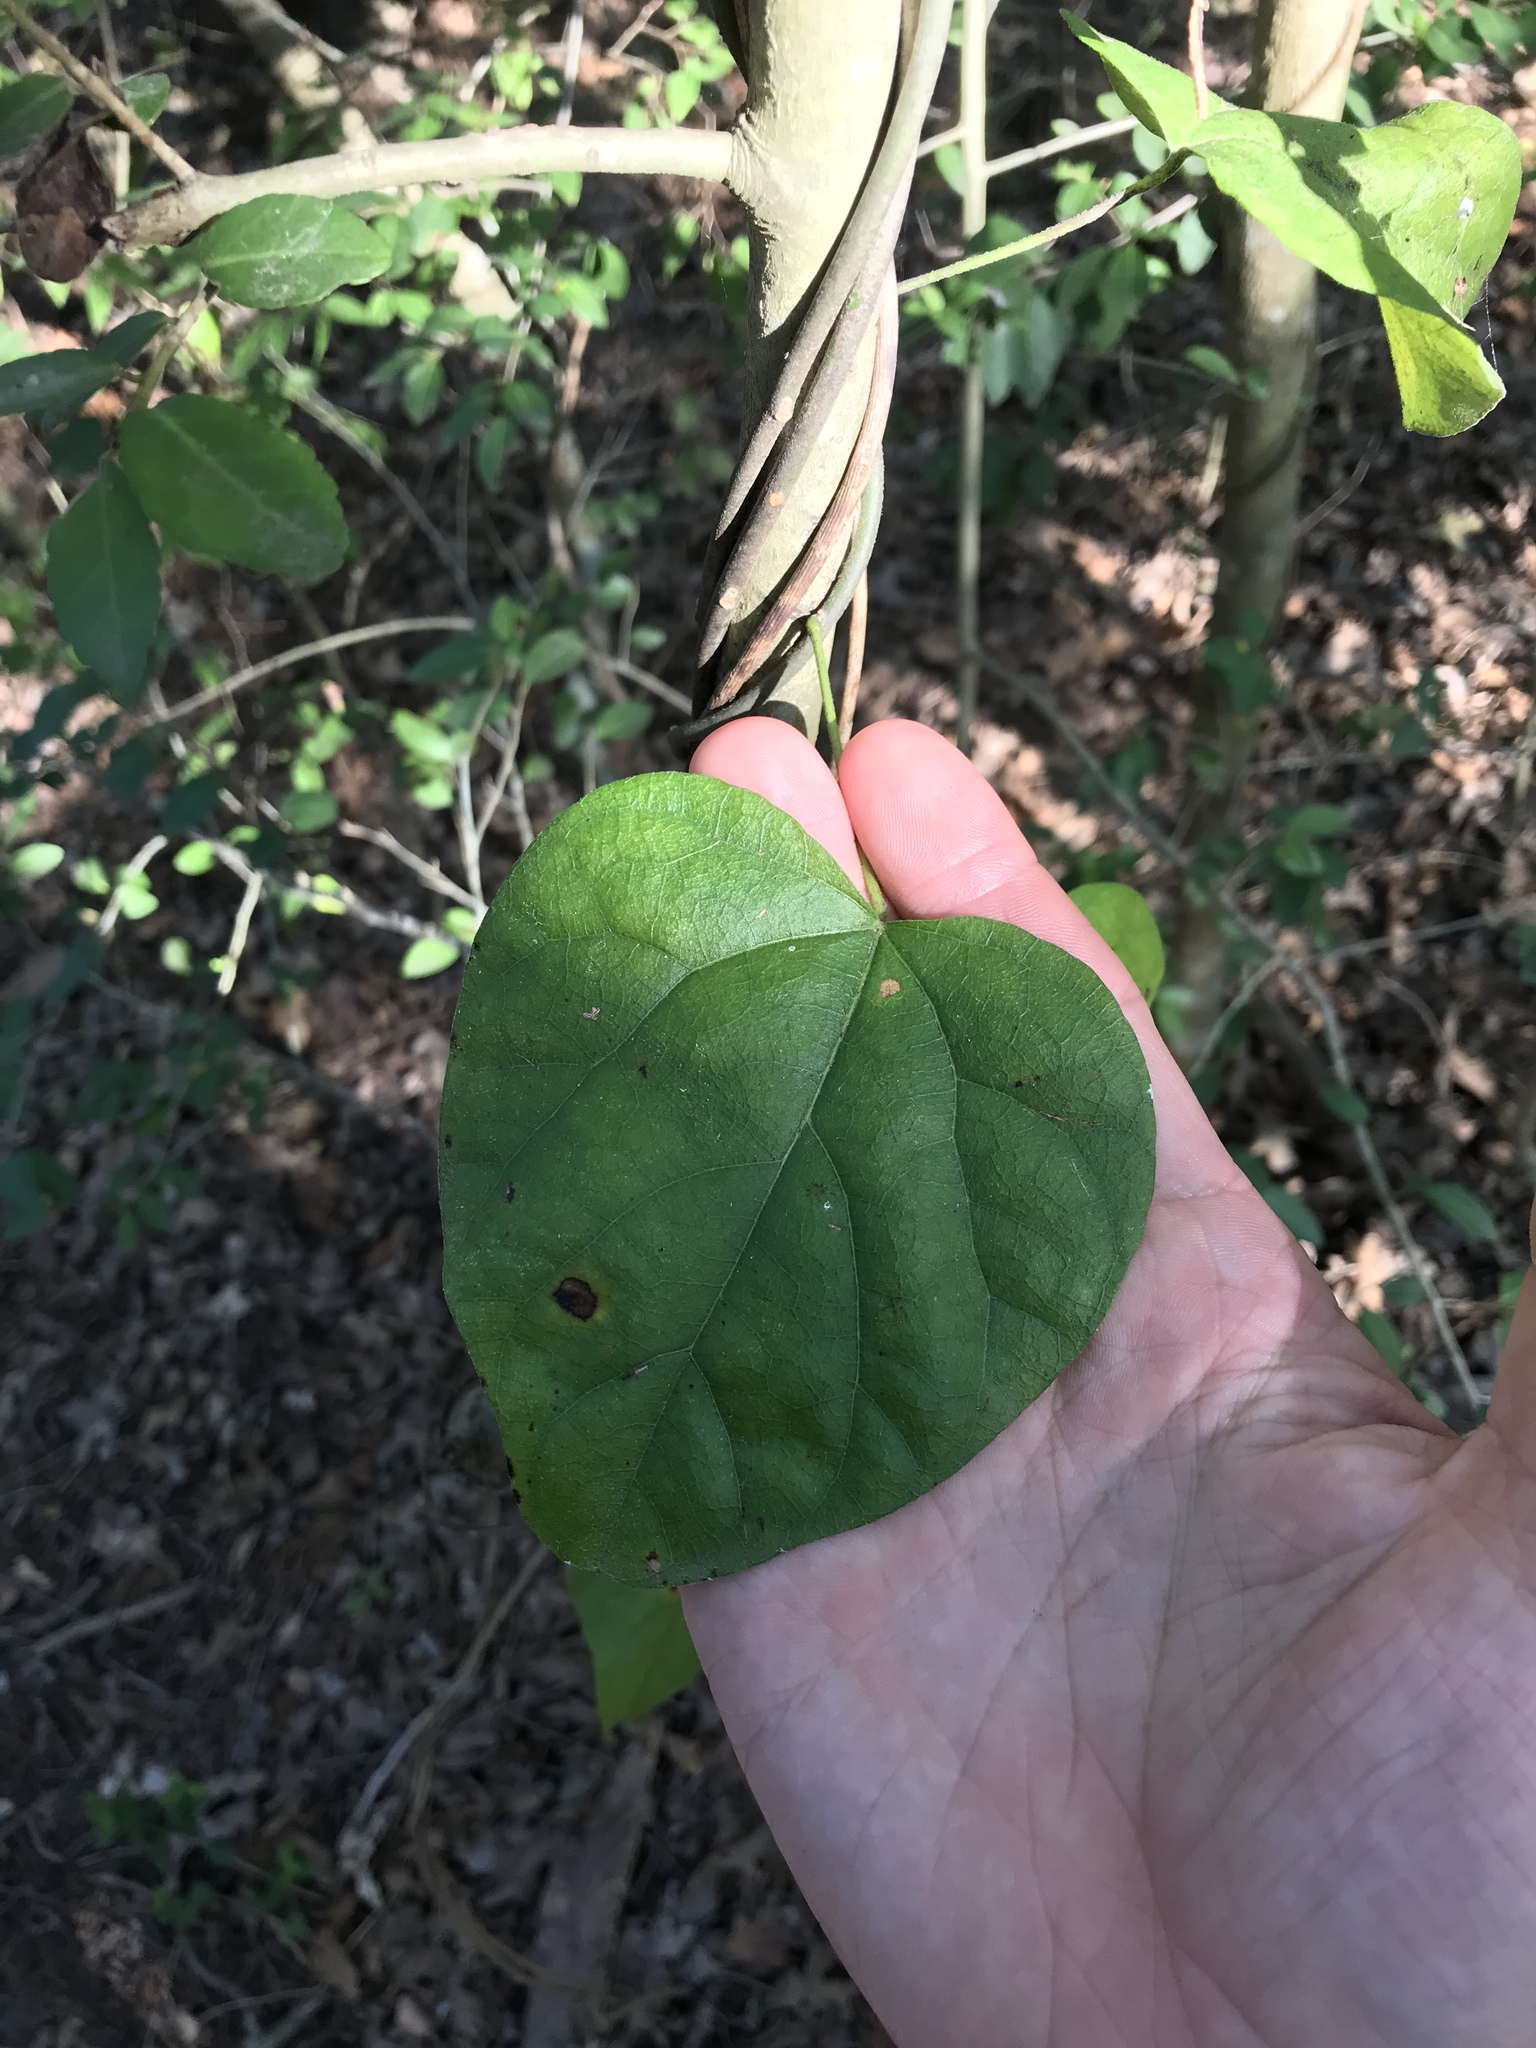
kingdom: Plantae
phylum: Tracheophyta
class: Magnoliopsida
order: Ranunculales
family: Menispermaceae
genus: Cocculus
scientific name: Cocculus carolinus
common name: Carolina moonseed
